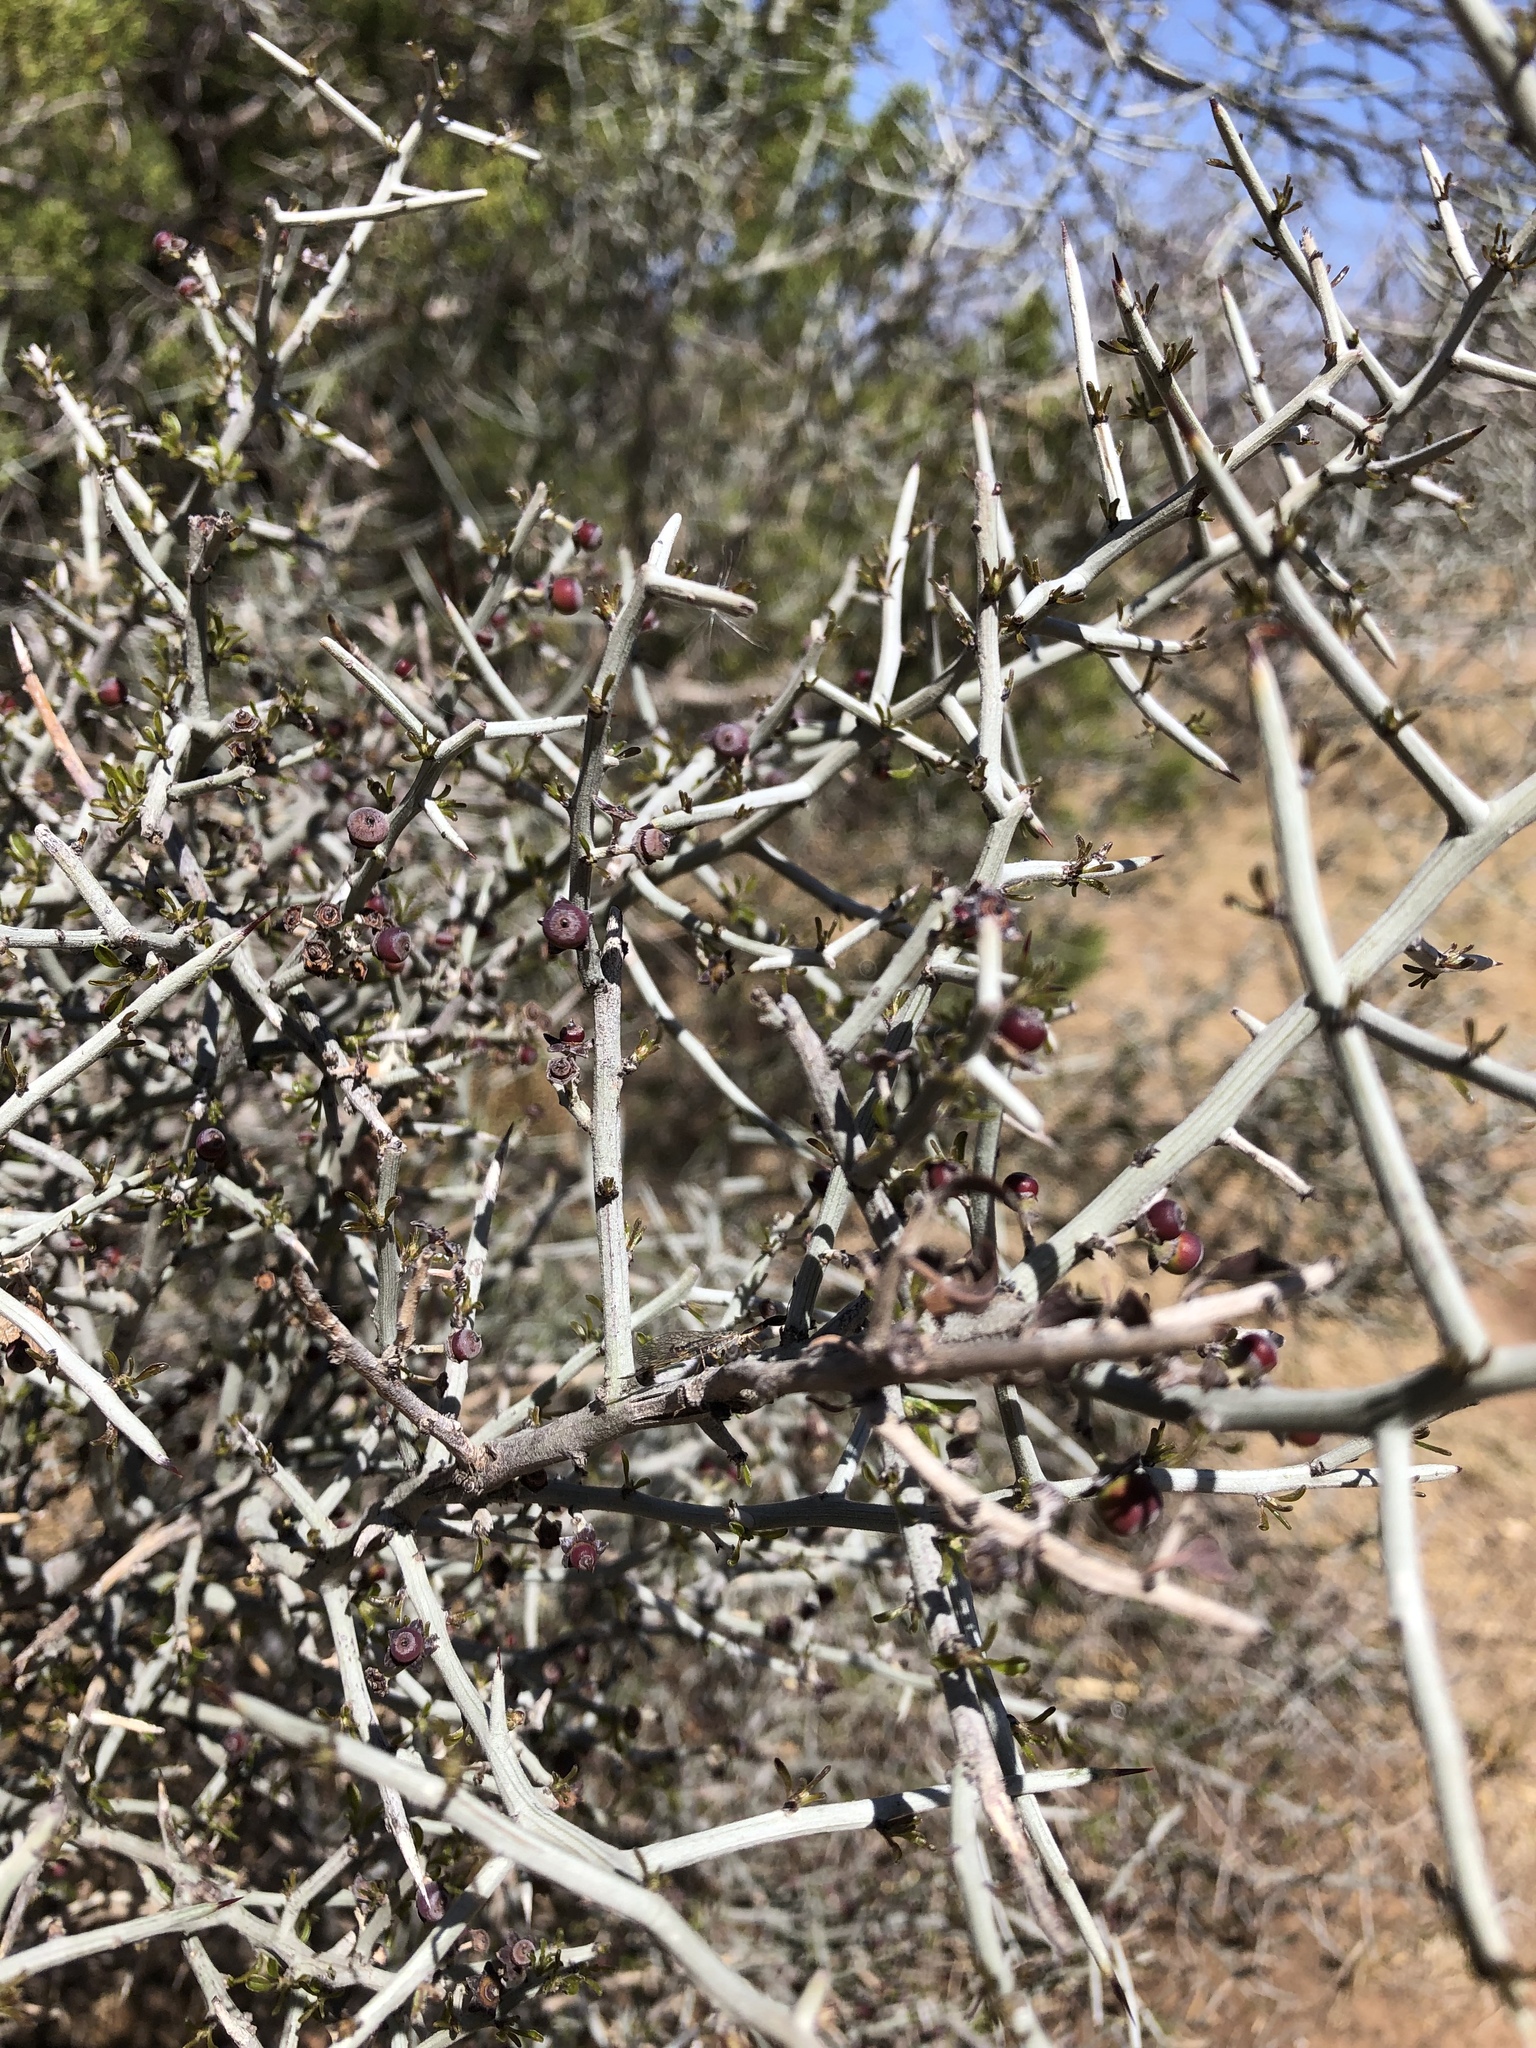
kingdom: Plantae
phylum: Tracheophyta
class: Magnoliopsida
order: Rosales
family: Rhamnaceae
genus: Sarcomphalus
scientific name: Sarcomphalus obtusifolius
